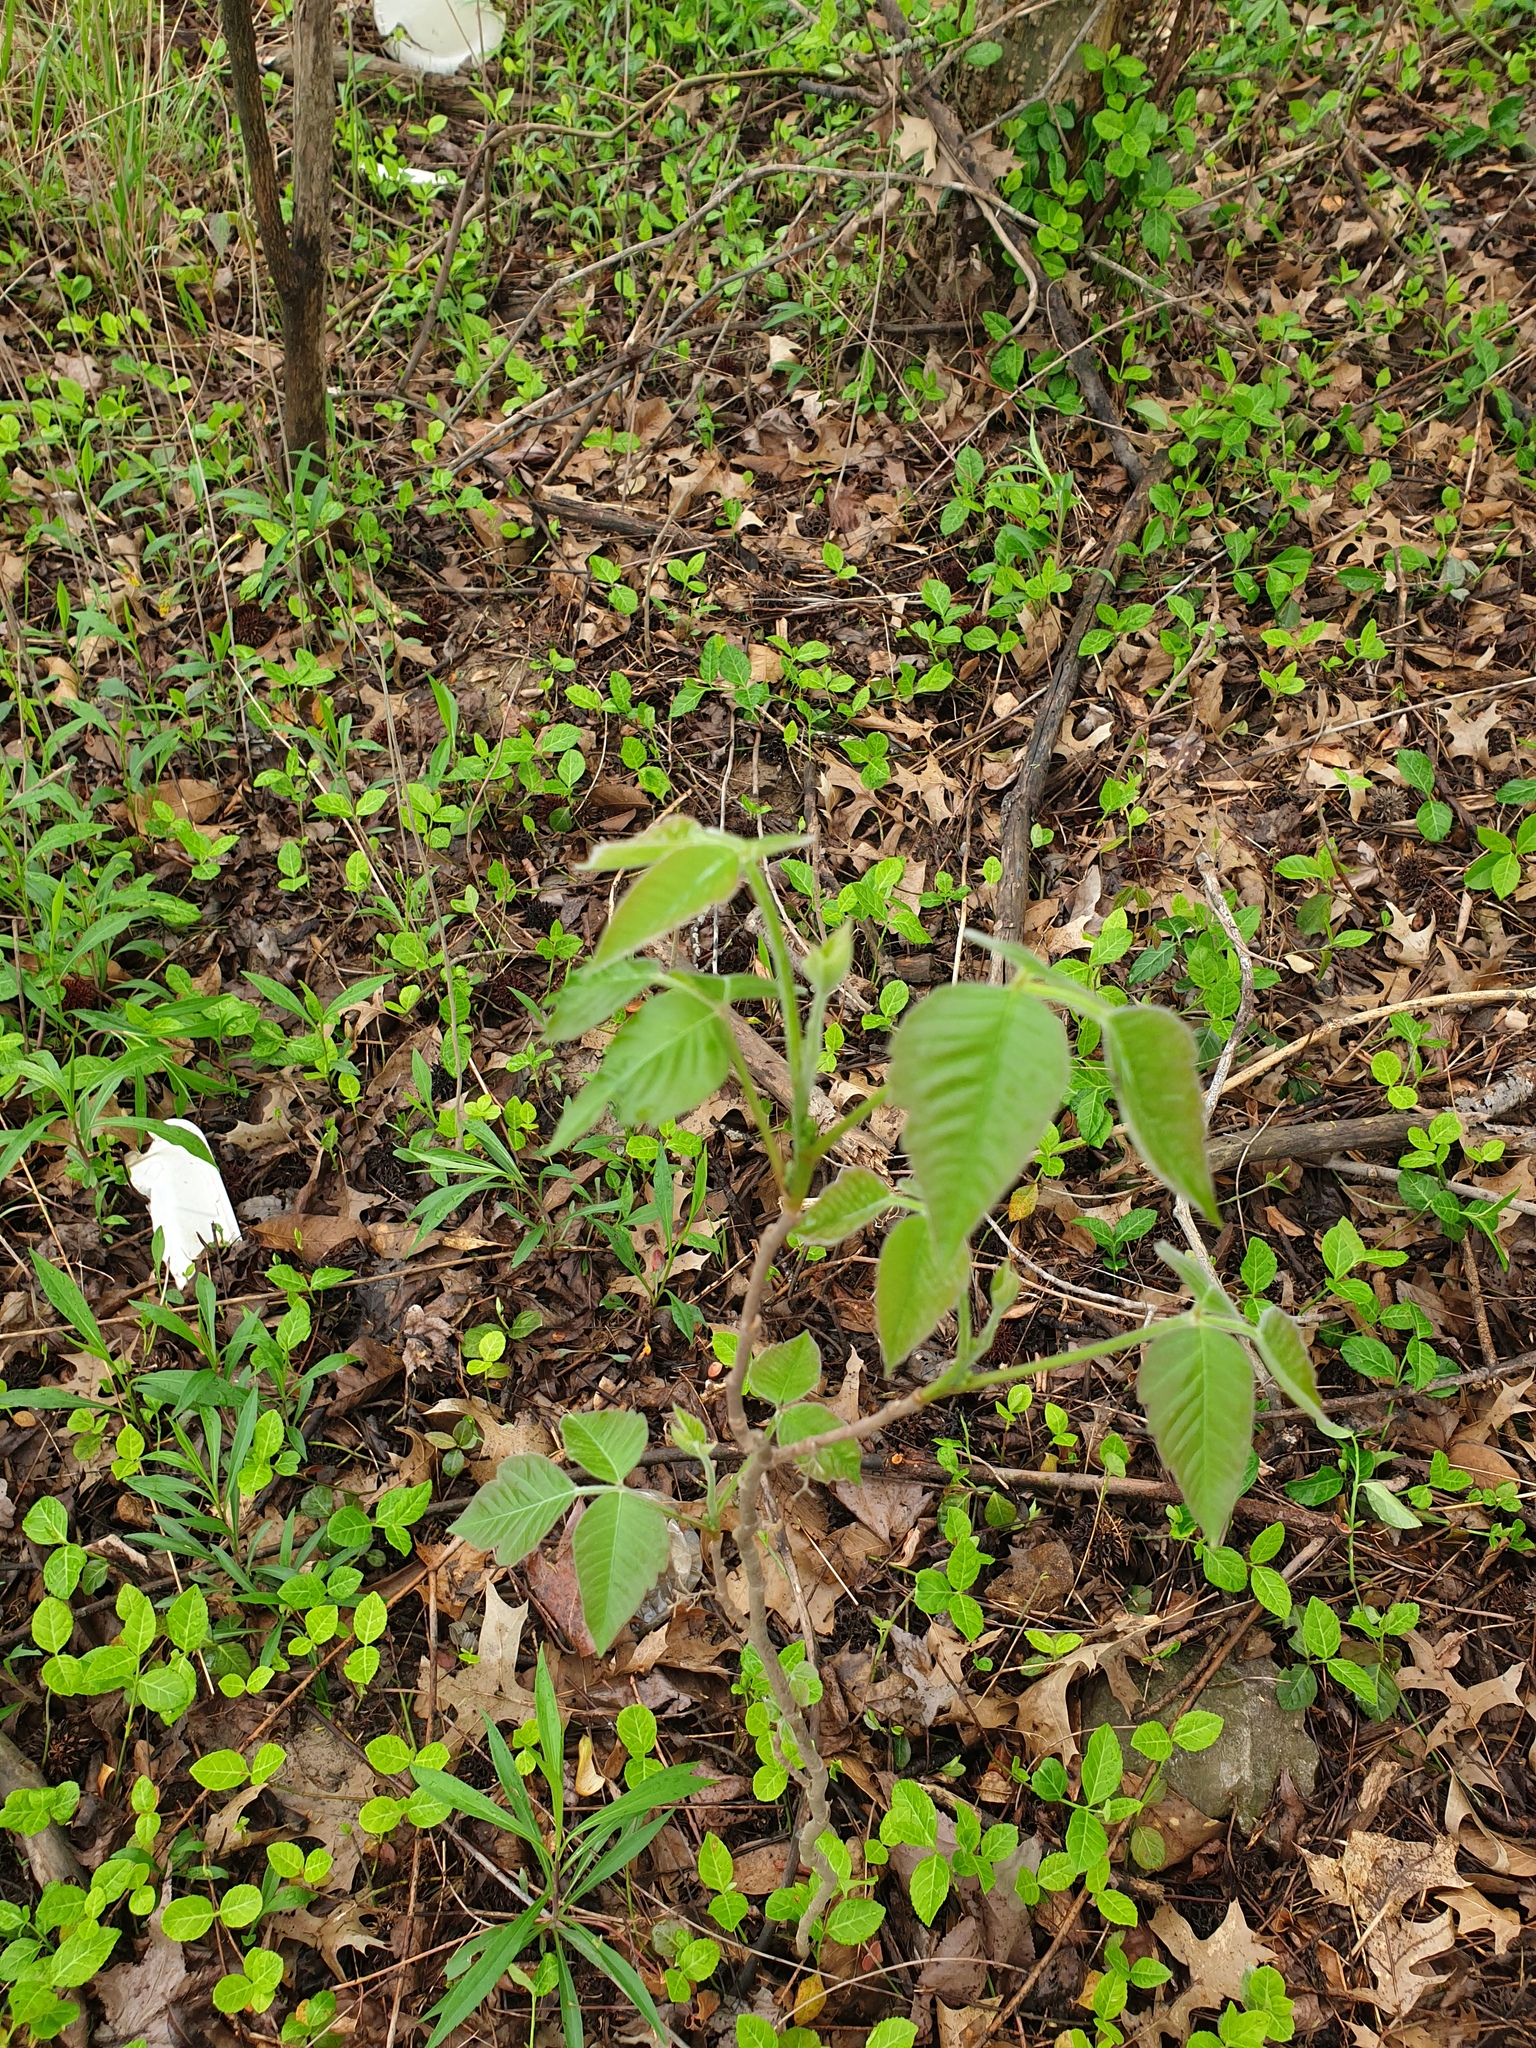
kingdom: Plantae
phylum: Tracheophyta
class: Magnoliopsida
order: Sapindales
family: Anacardiaceae
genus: Toxicodendron
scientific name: Toxicodendron radicans
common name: Poison ivy
